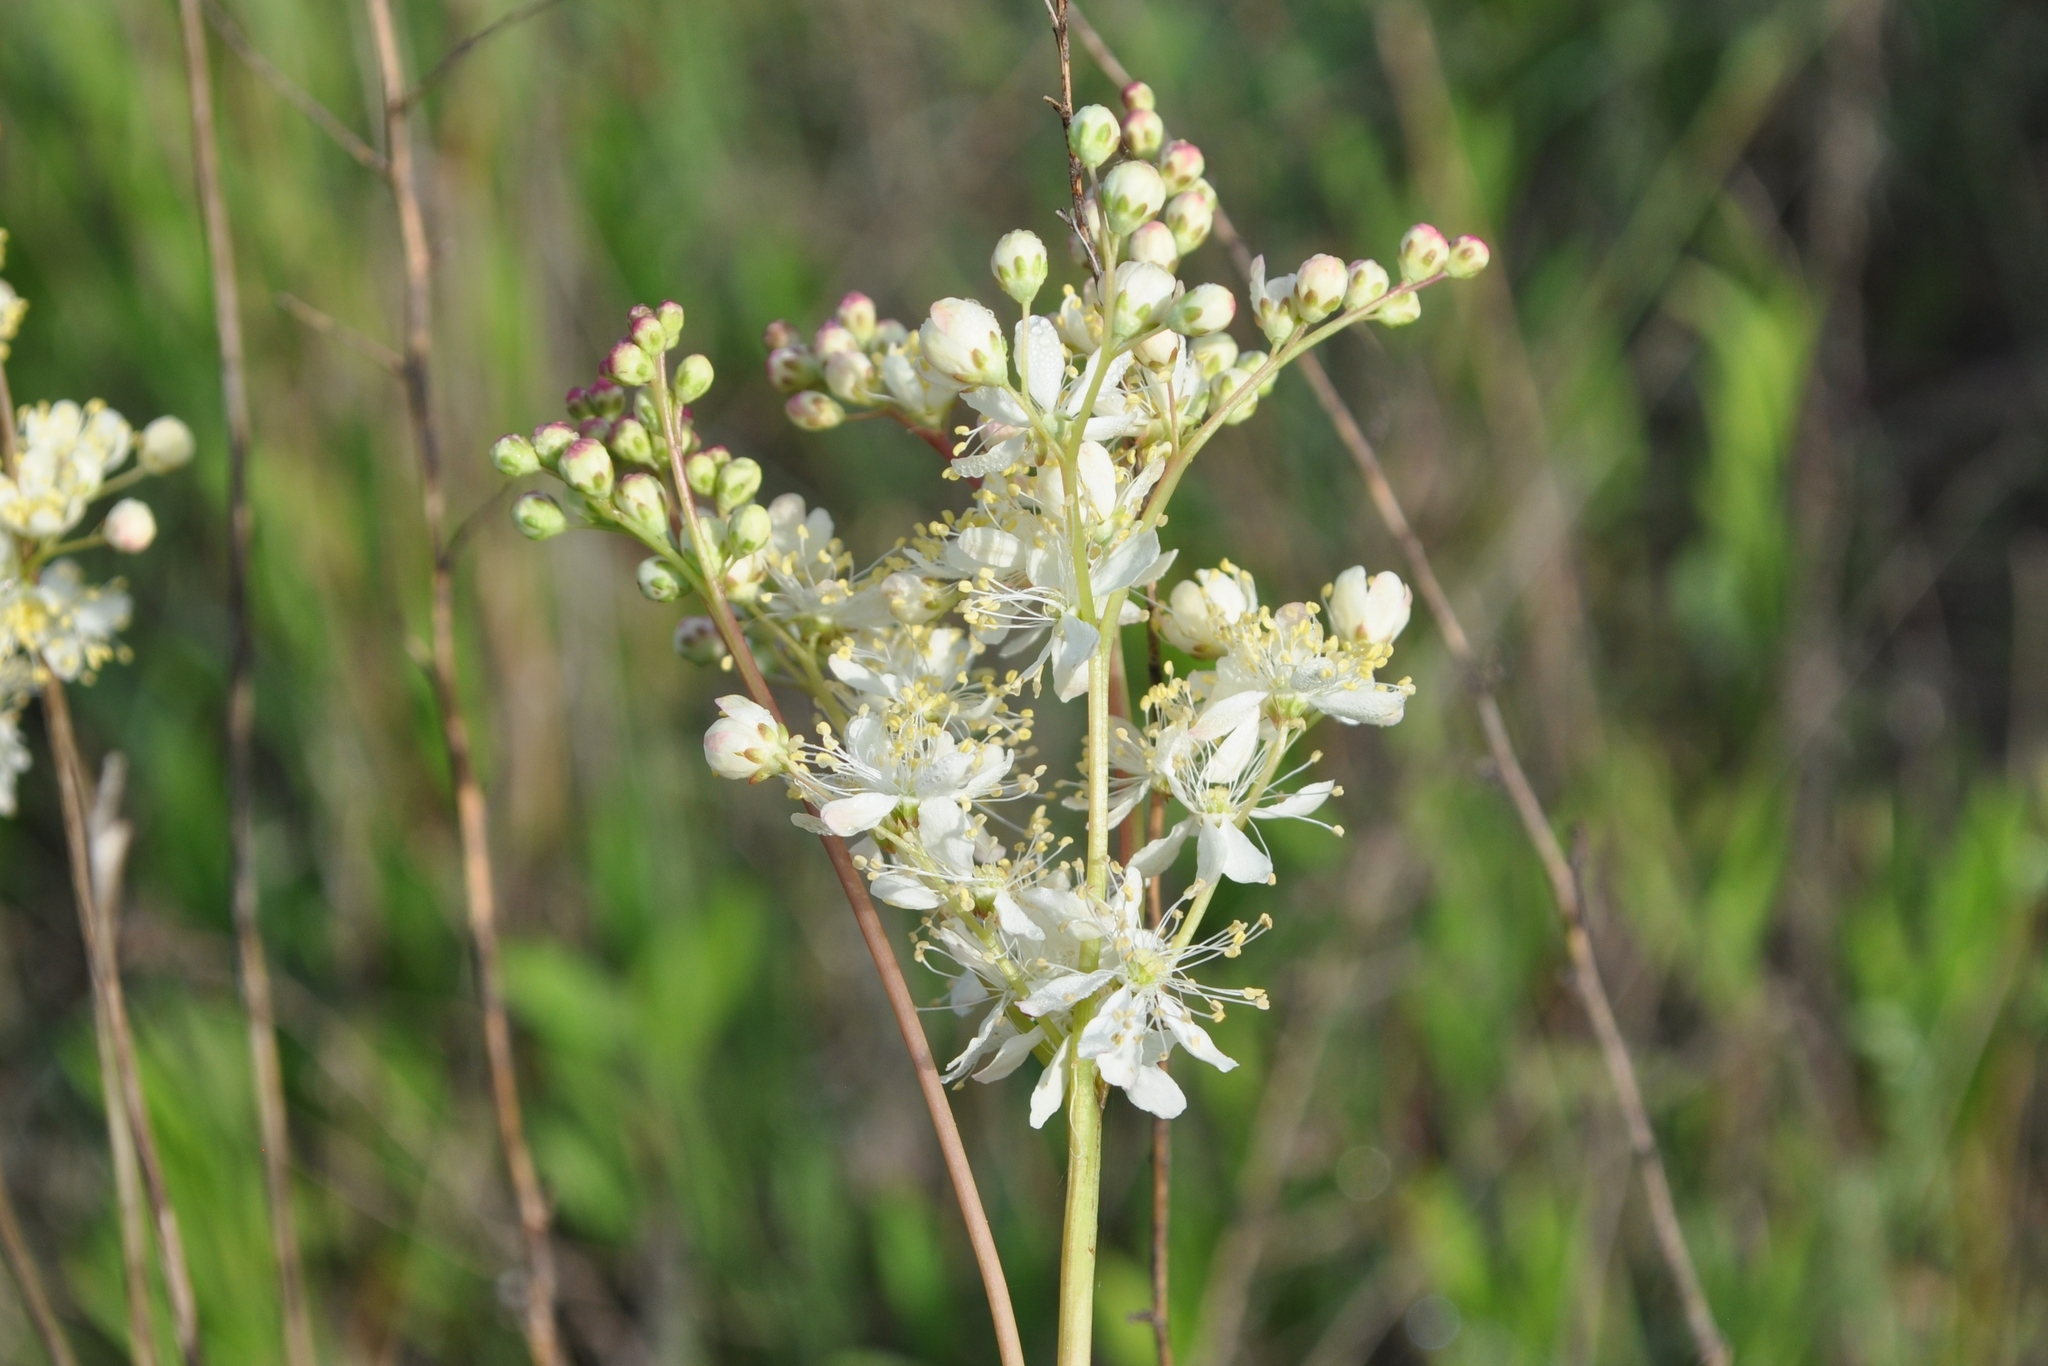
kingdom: Plantae
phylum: Tracheophyta
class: Magnoliopsida
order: Rosales
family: Rosaceae
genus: Filipendula
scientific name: Filipendula vulgaris
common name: Dropwort
